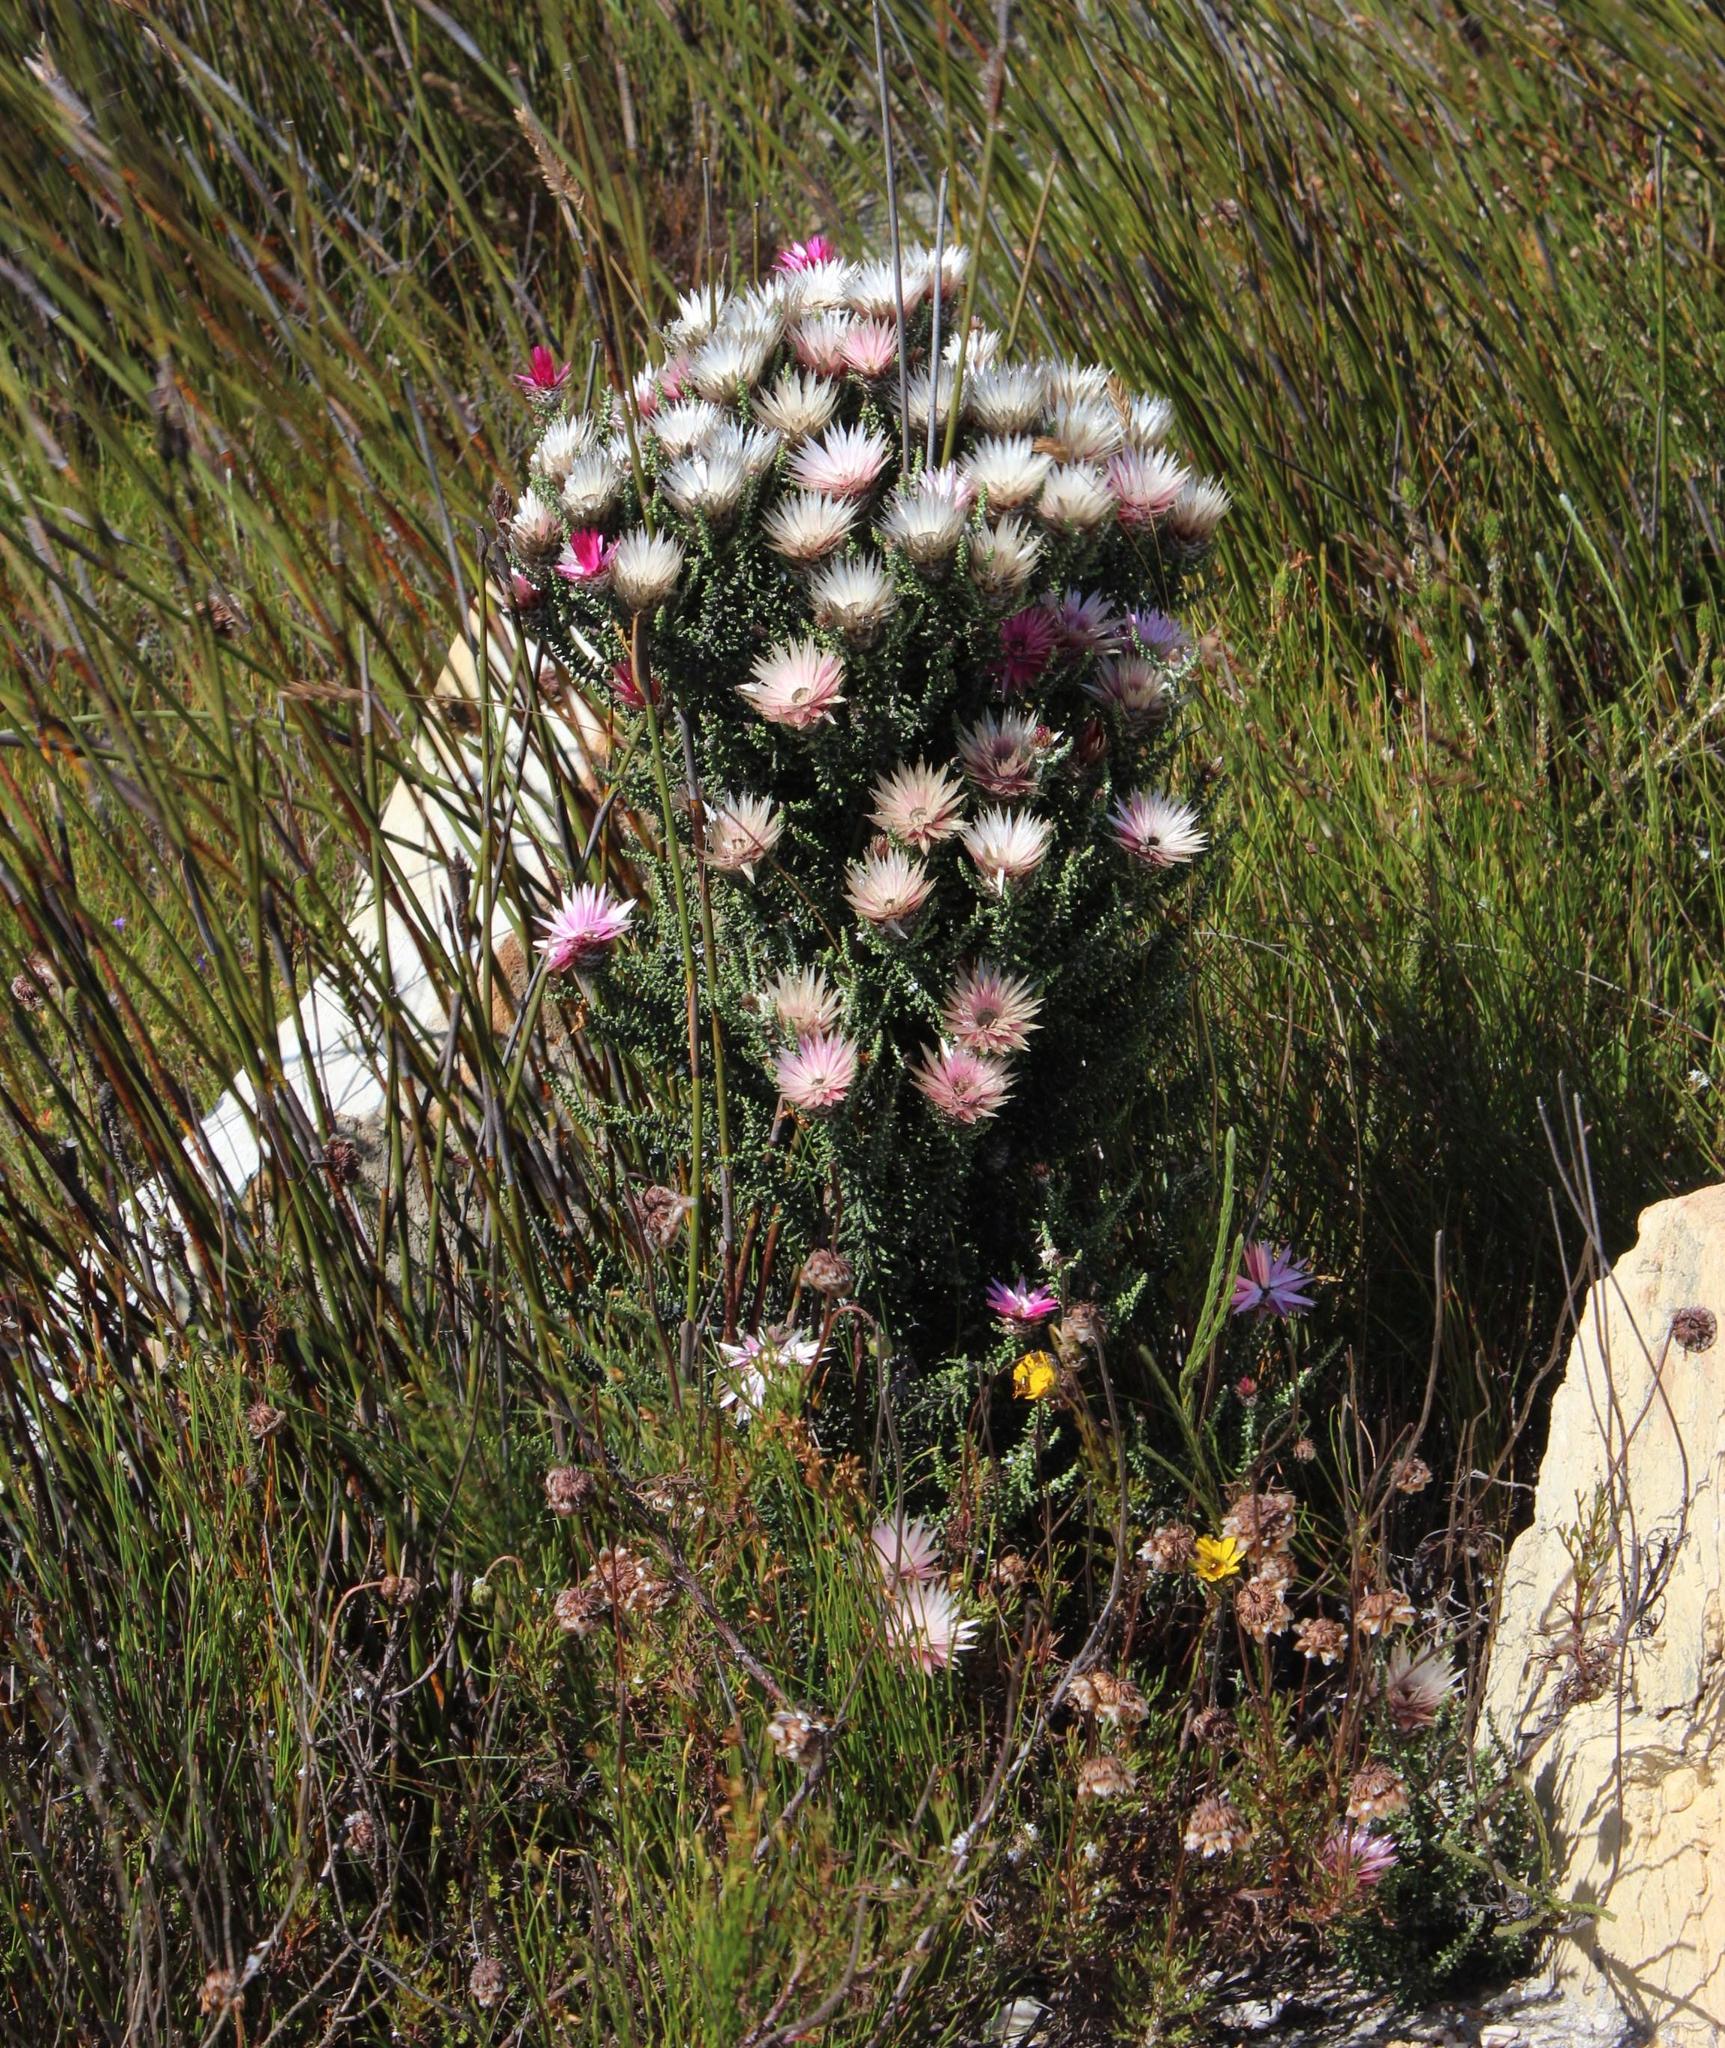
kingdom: Plantae
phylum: Tracheophyta
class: Magnoliopsida
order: Asterales
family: Asteraceae
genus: Phaenocoma
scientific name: Phaenocoma prolifera
